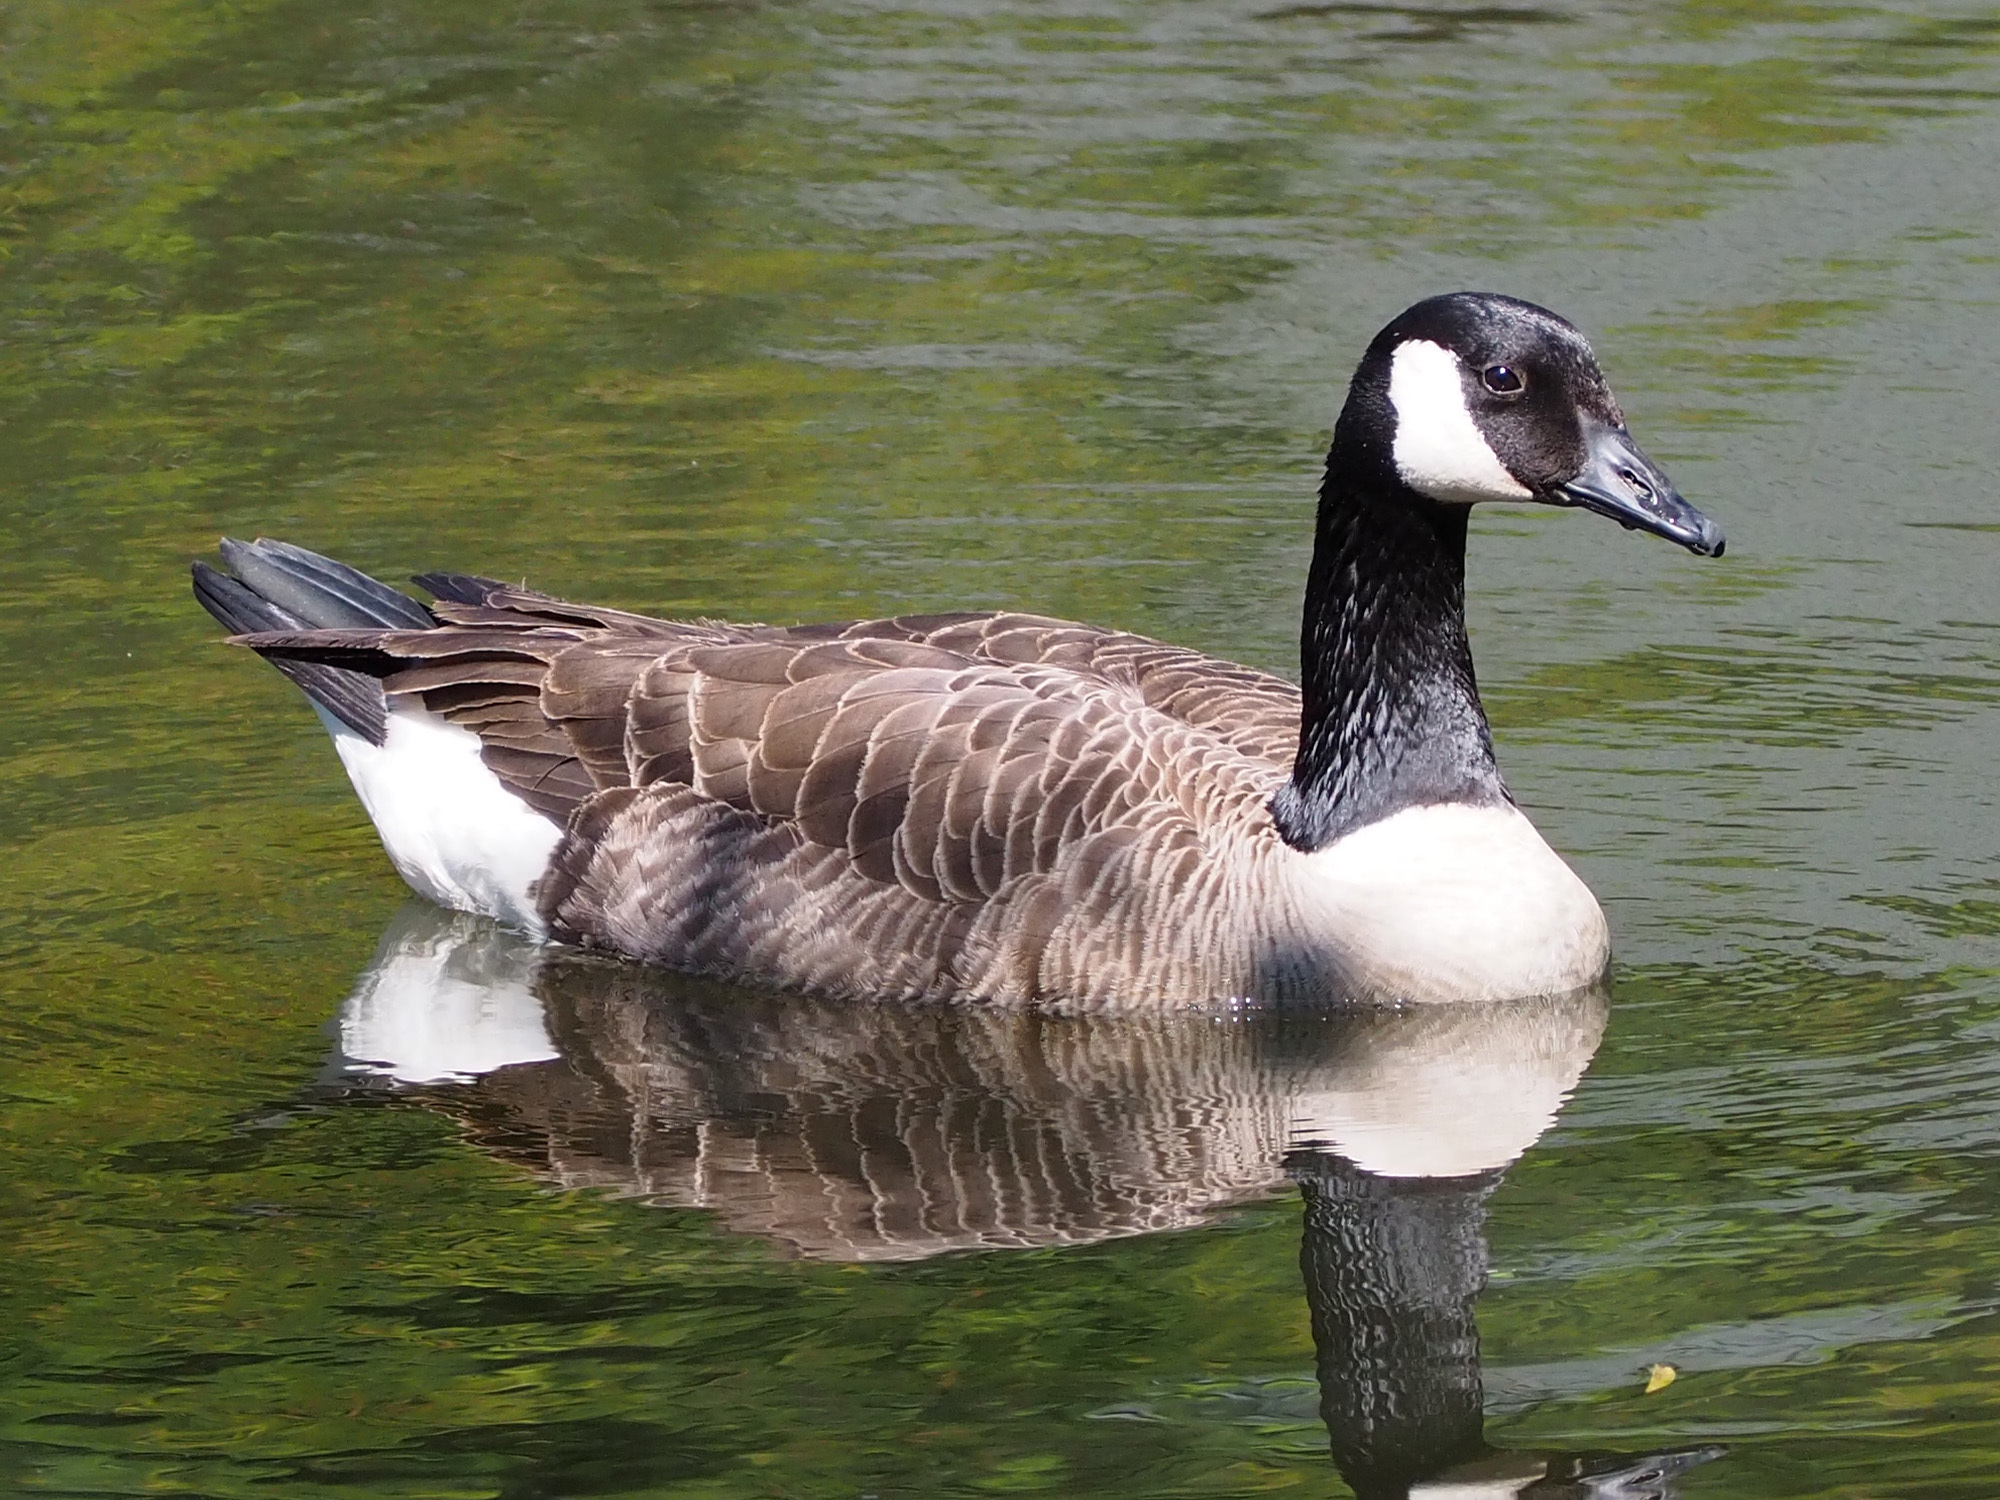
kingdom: Animalia
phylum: Chordata
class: Aves
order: Anseriformes
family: Anatidae
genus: Branta
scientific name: Branta canadensis
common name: Canada goose
